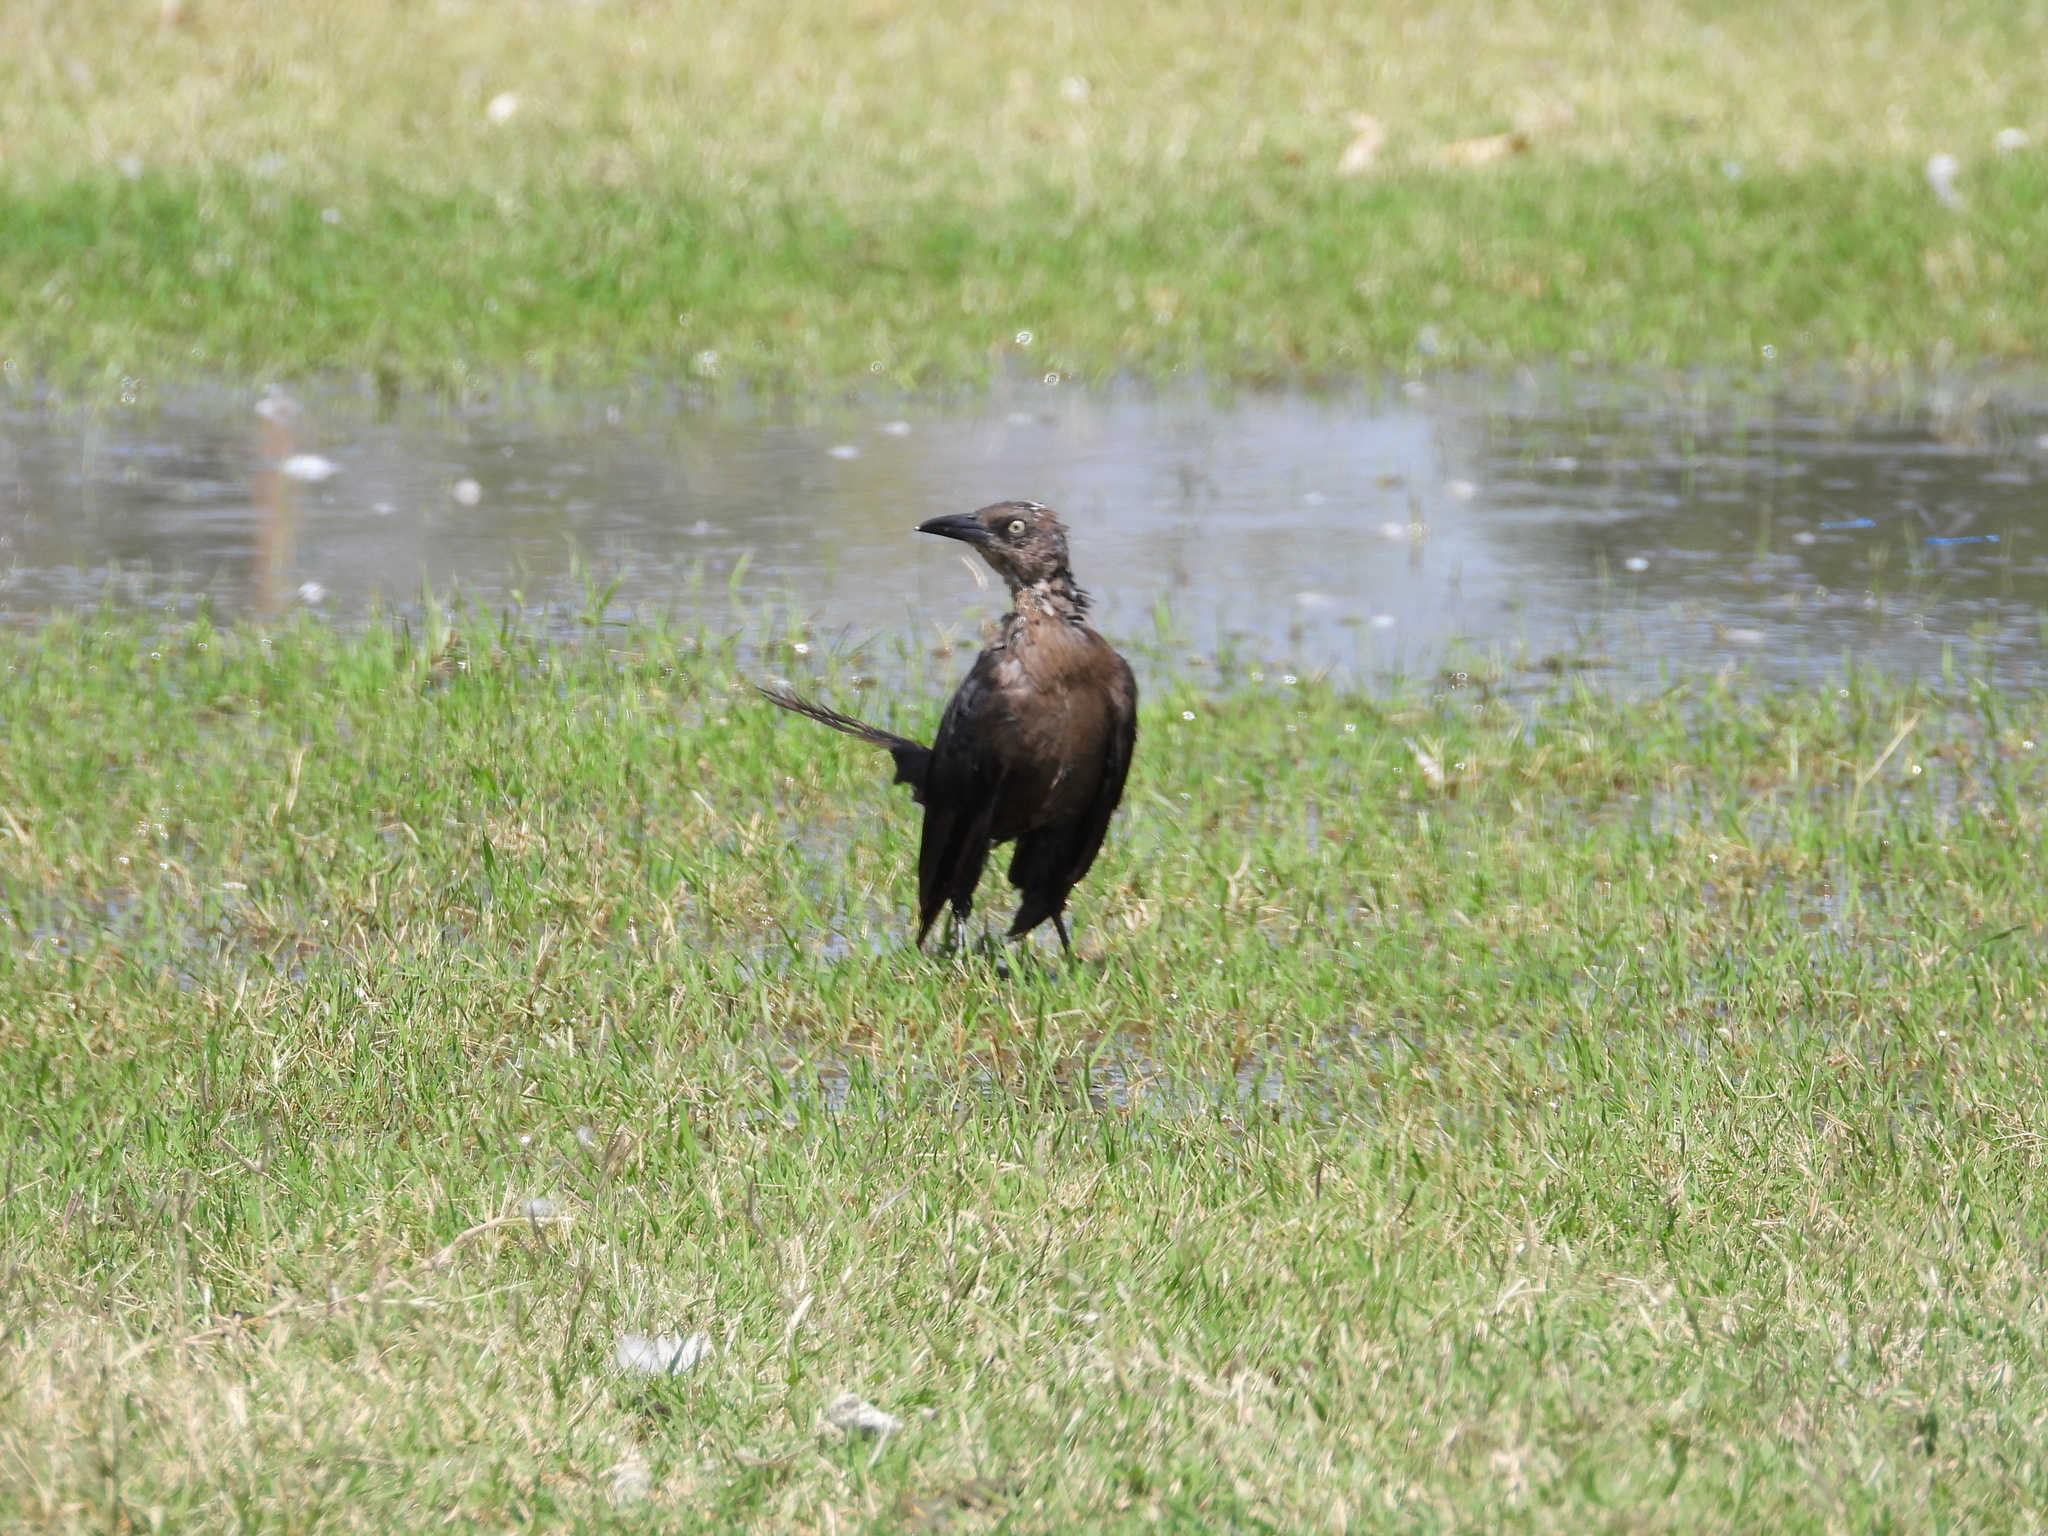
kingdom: Animalia
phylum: Chordata
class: Aves
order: Passeriformes
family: Icteridae
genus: Quiscalus
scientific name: Quiscalus mexicanus
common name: Great-tailed grackle
